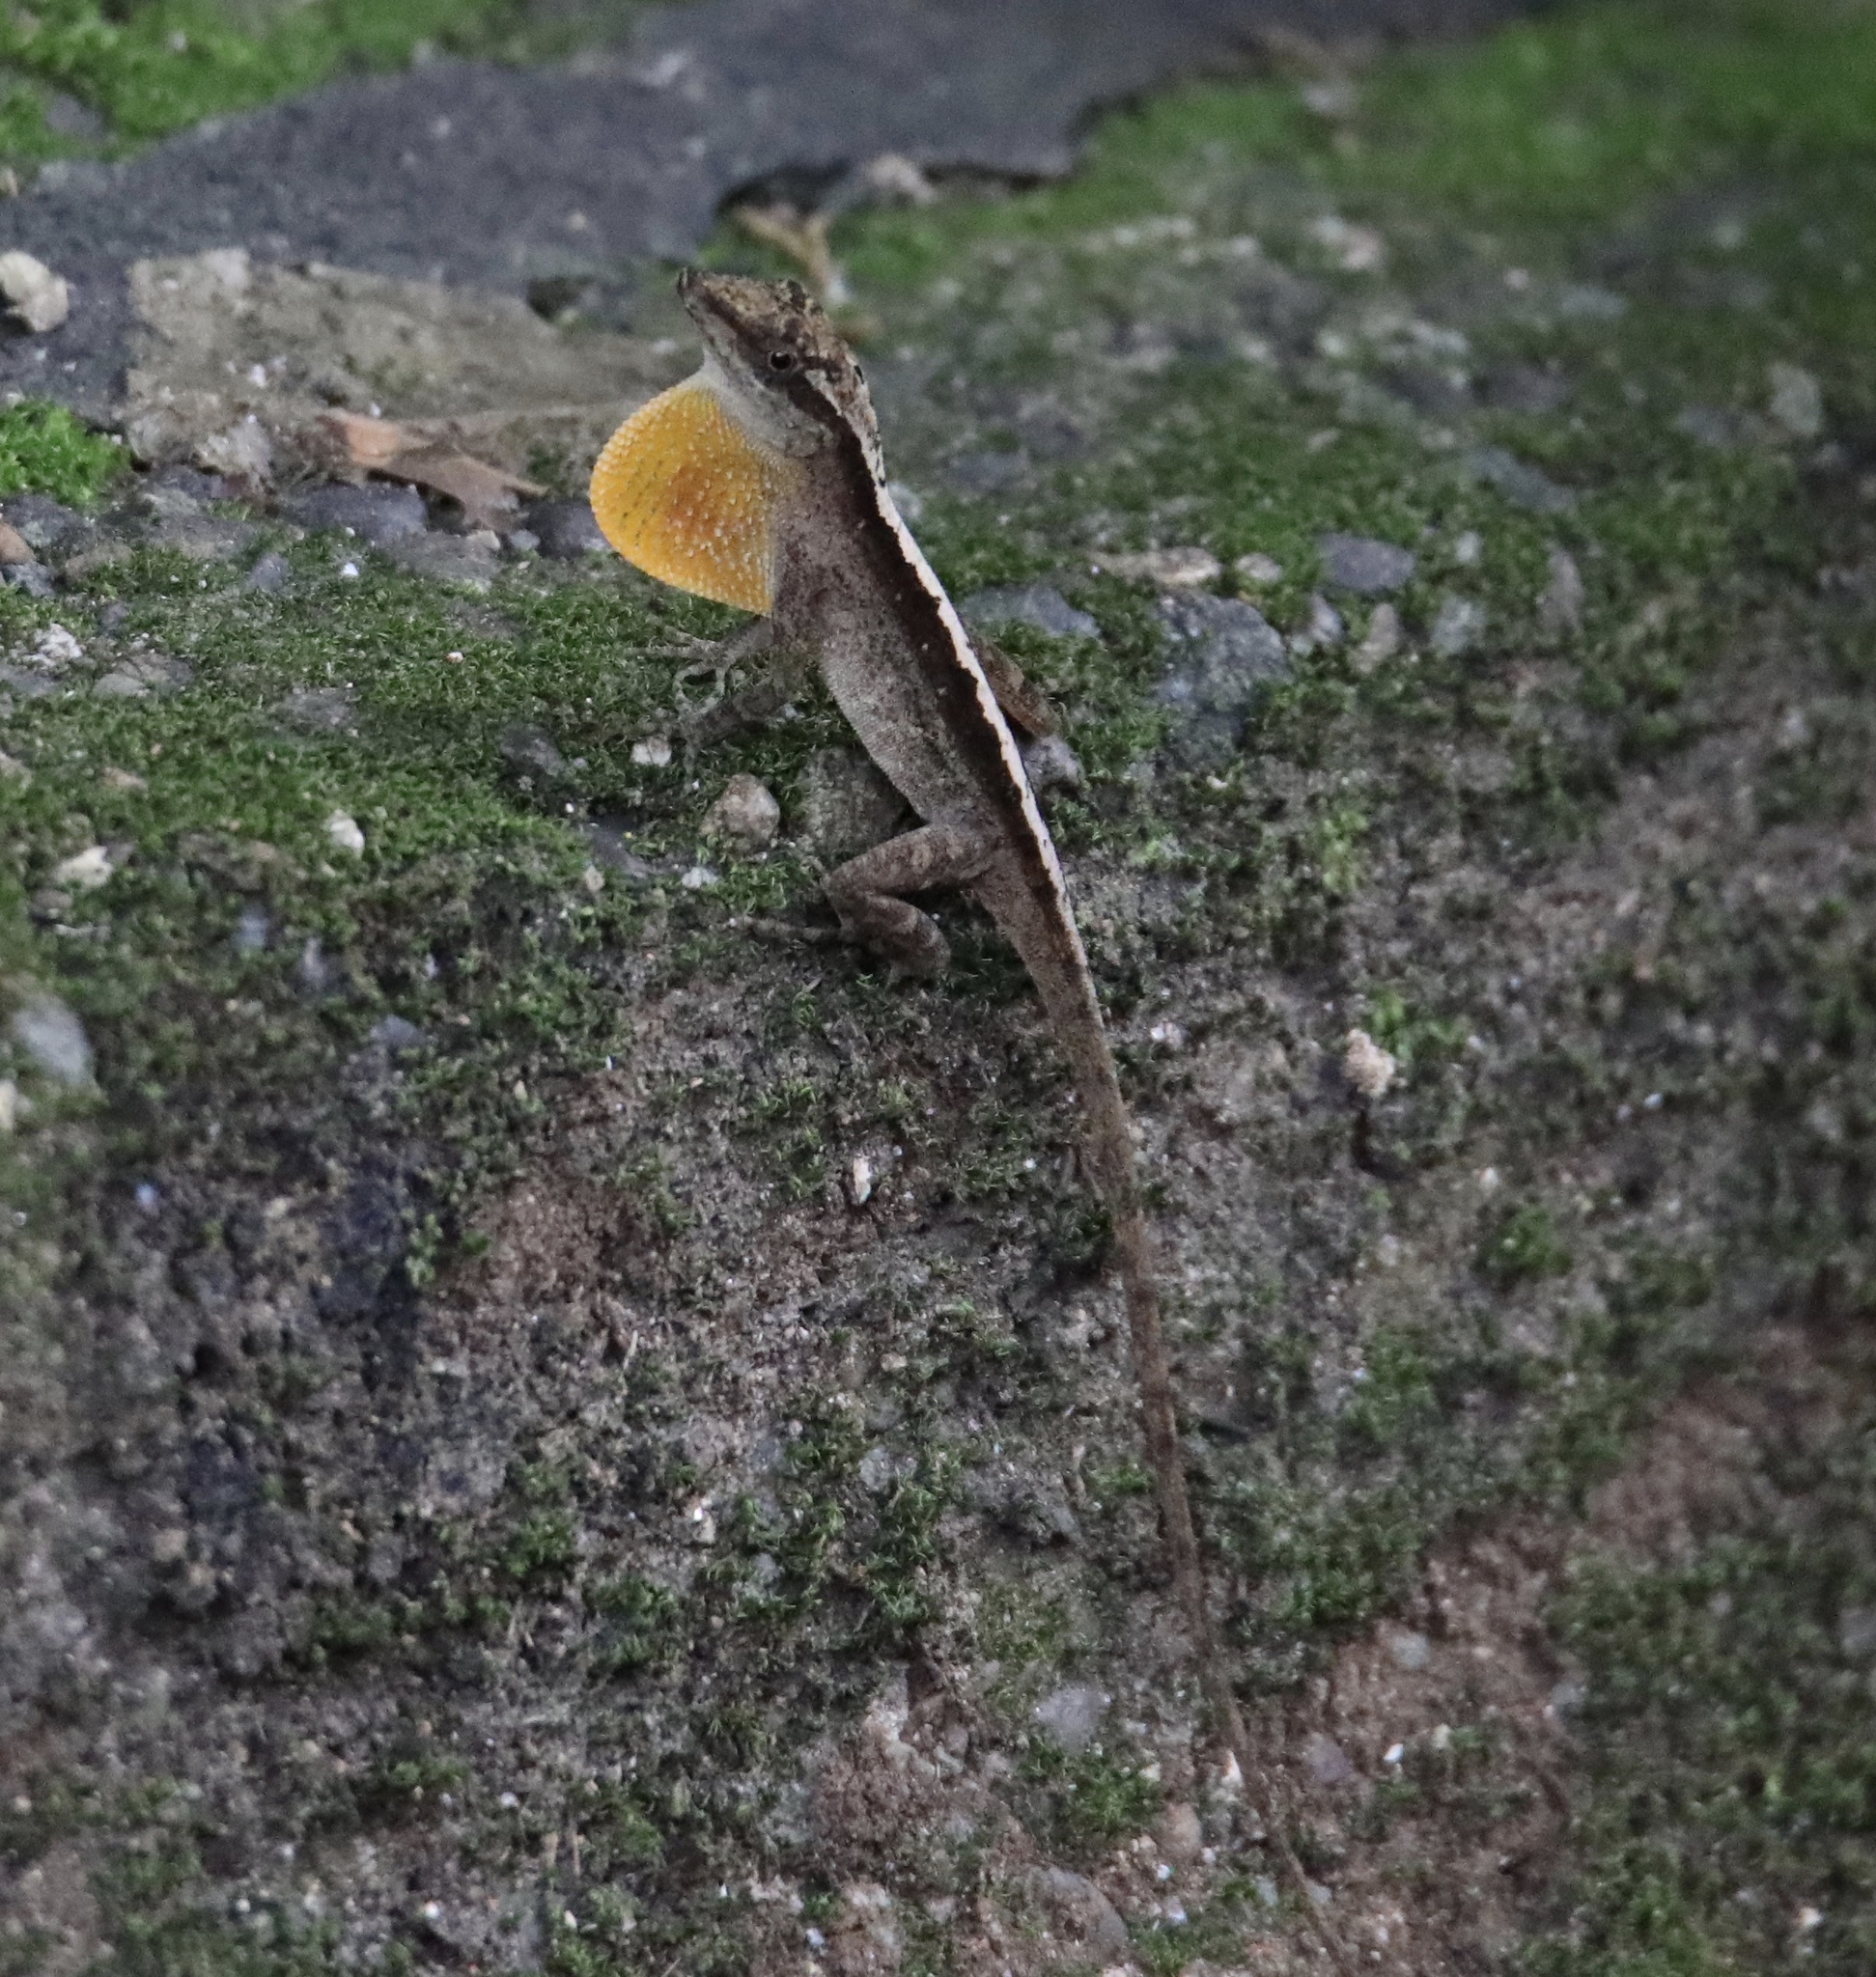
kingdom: Animalia
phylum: Chordata
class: Squamata
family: Dactyloidae
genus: Anolis
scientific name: Anolis gaigei
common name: Gaige’s anole
